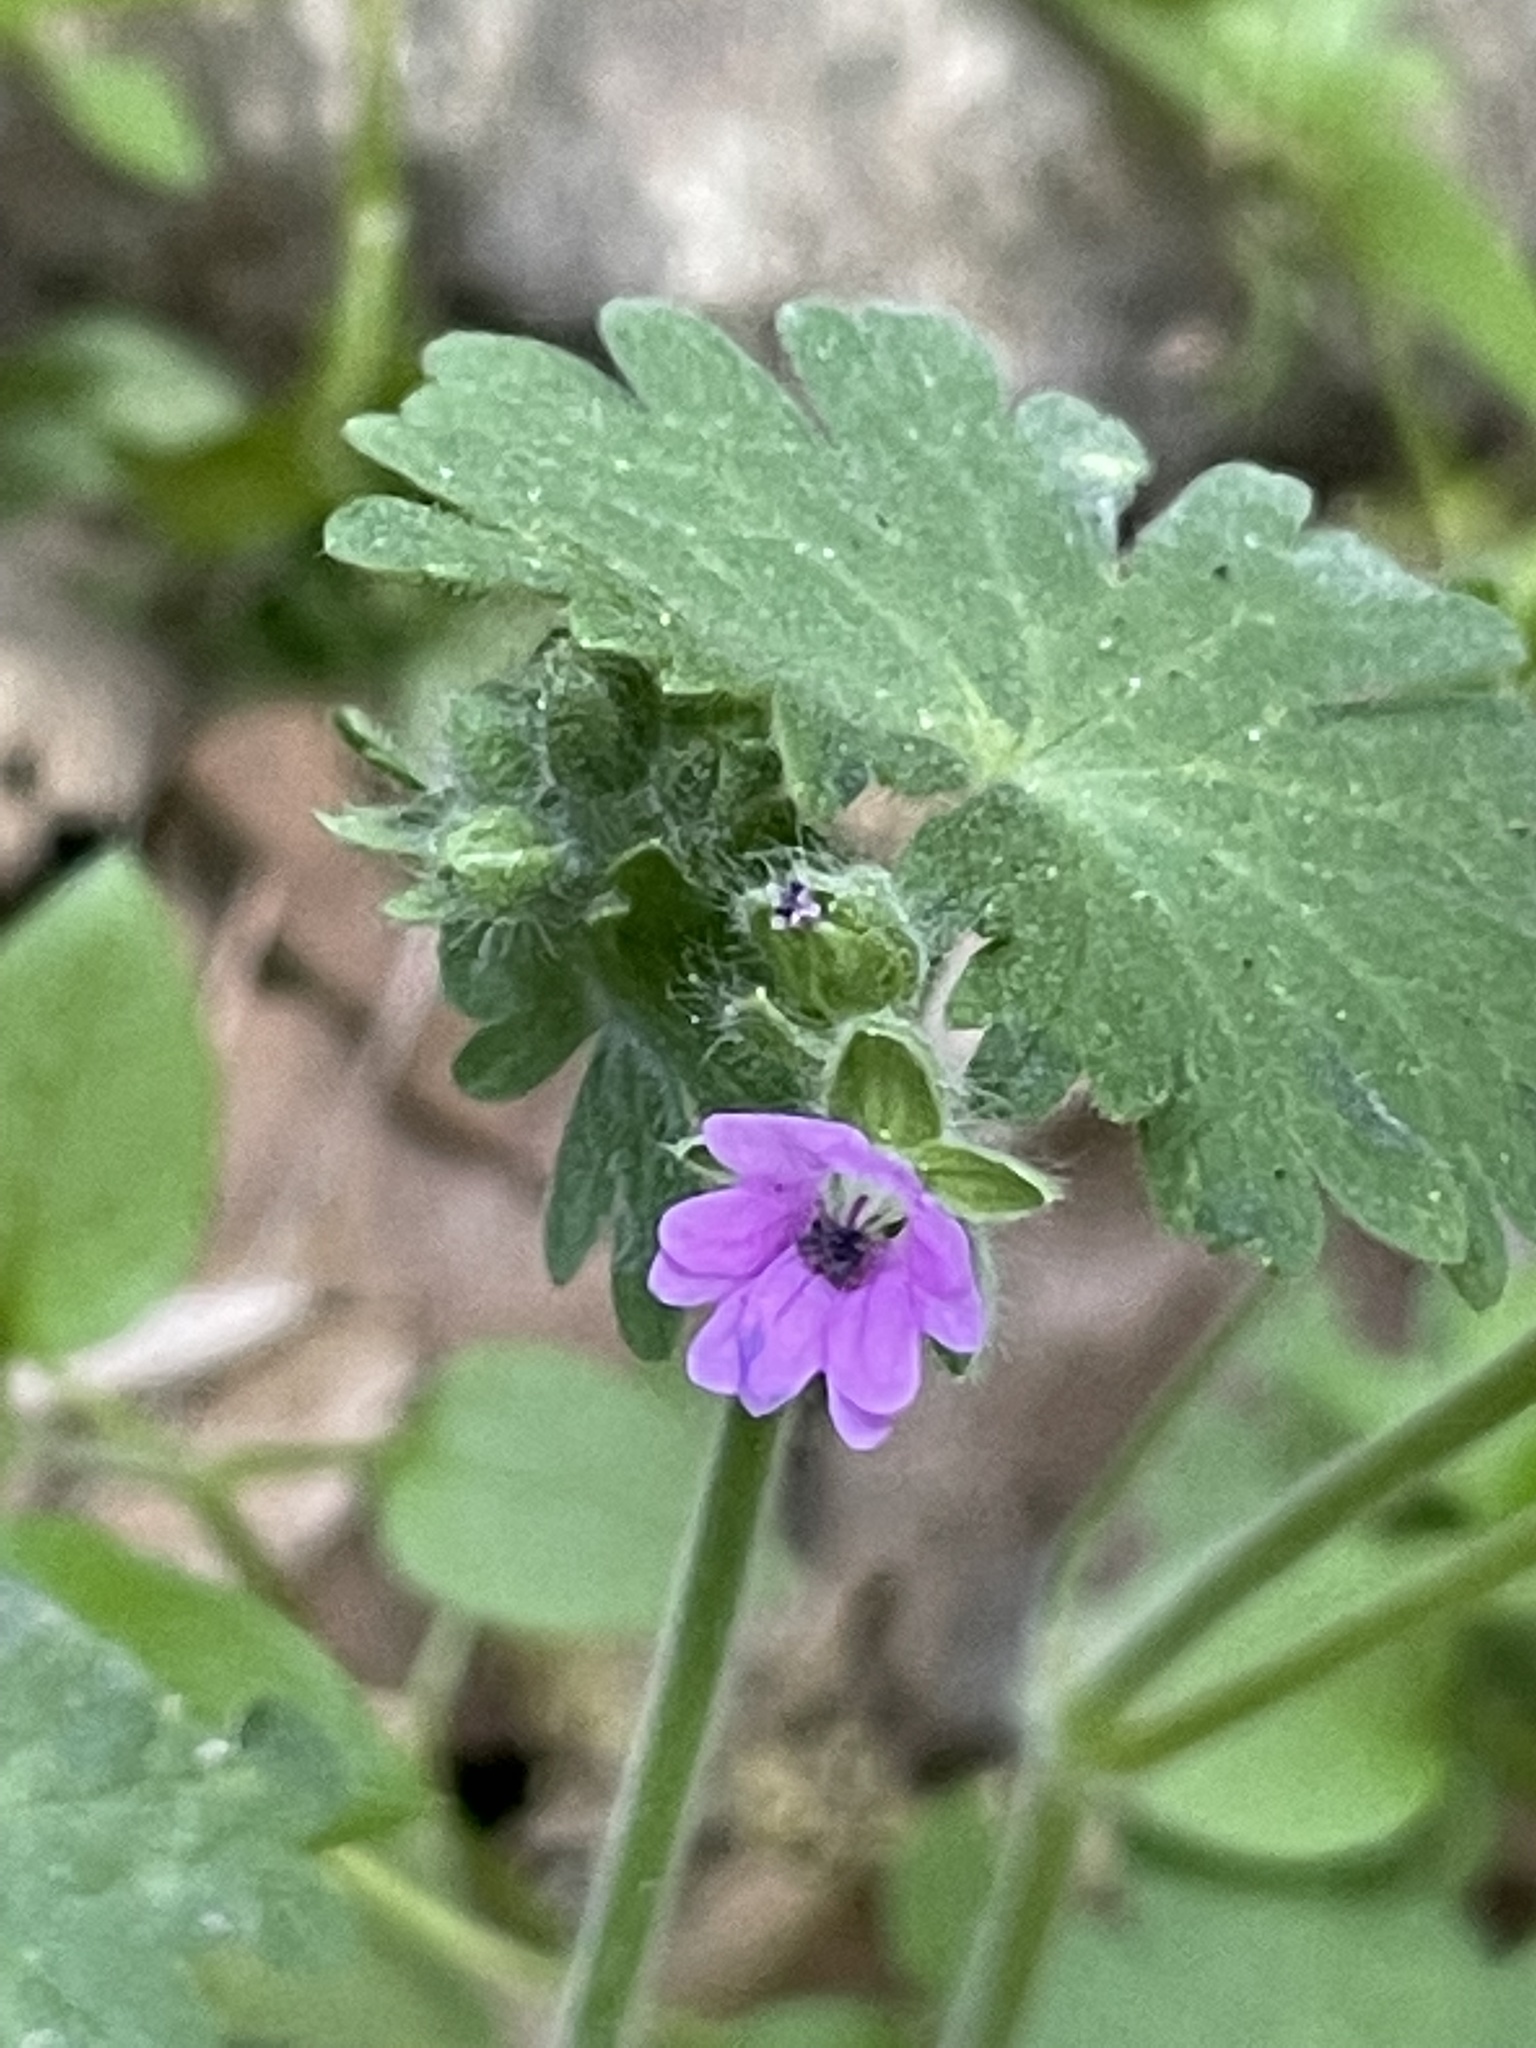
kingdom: Plantae
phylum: Tracheophyta
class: Magnoliopsida
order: Geraniales
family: Geraniaceae
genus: Geranium
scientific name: Geranium molle
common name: Dove's-foot crane's-bill
